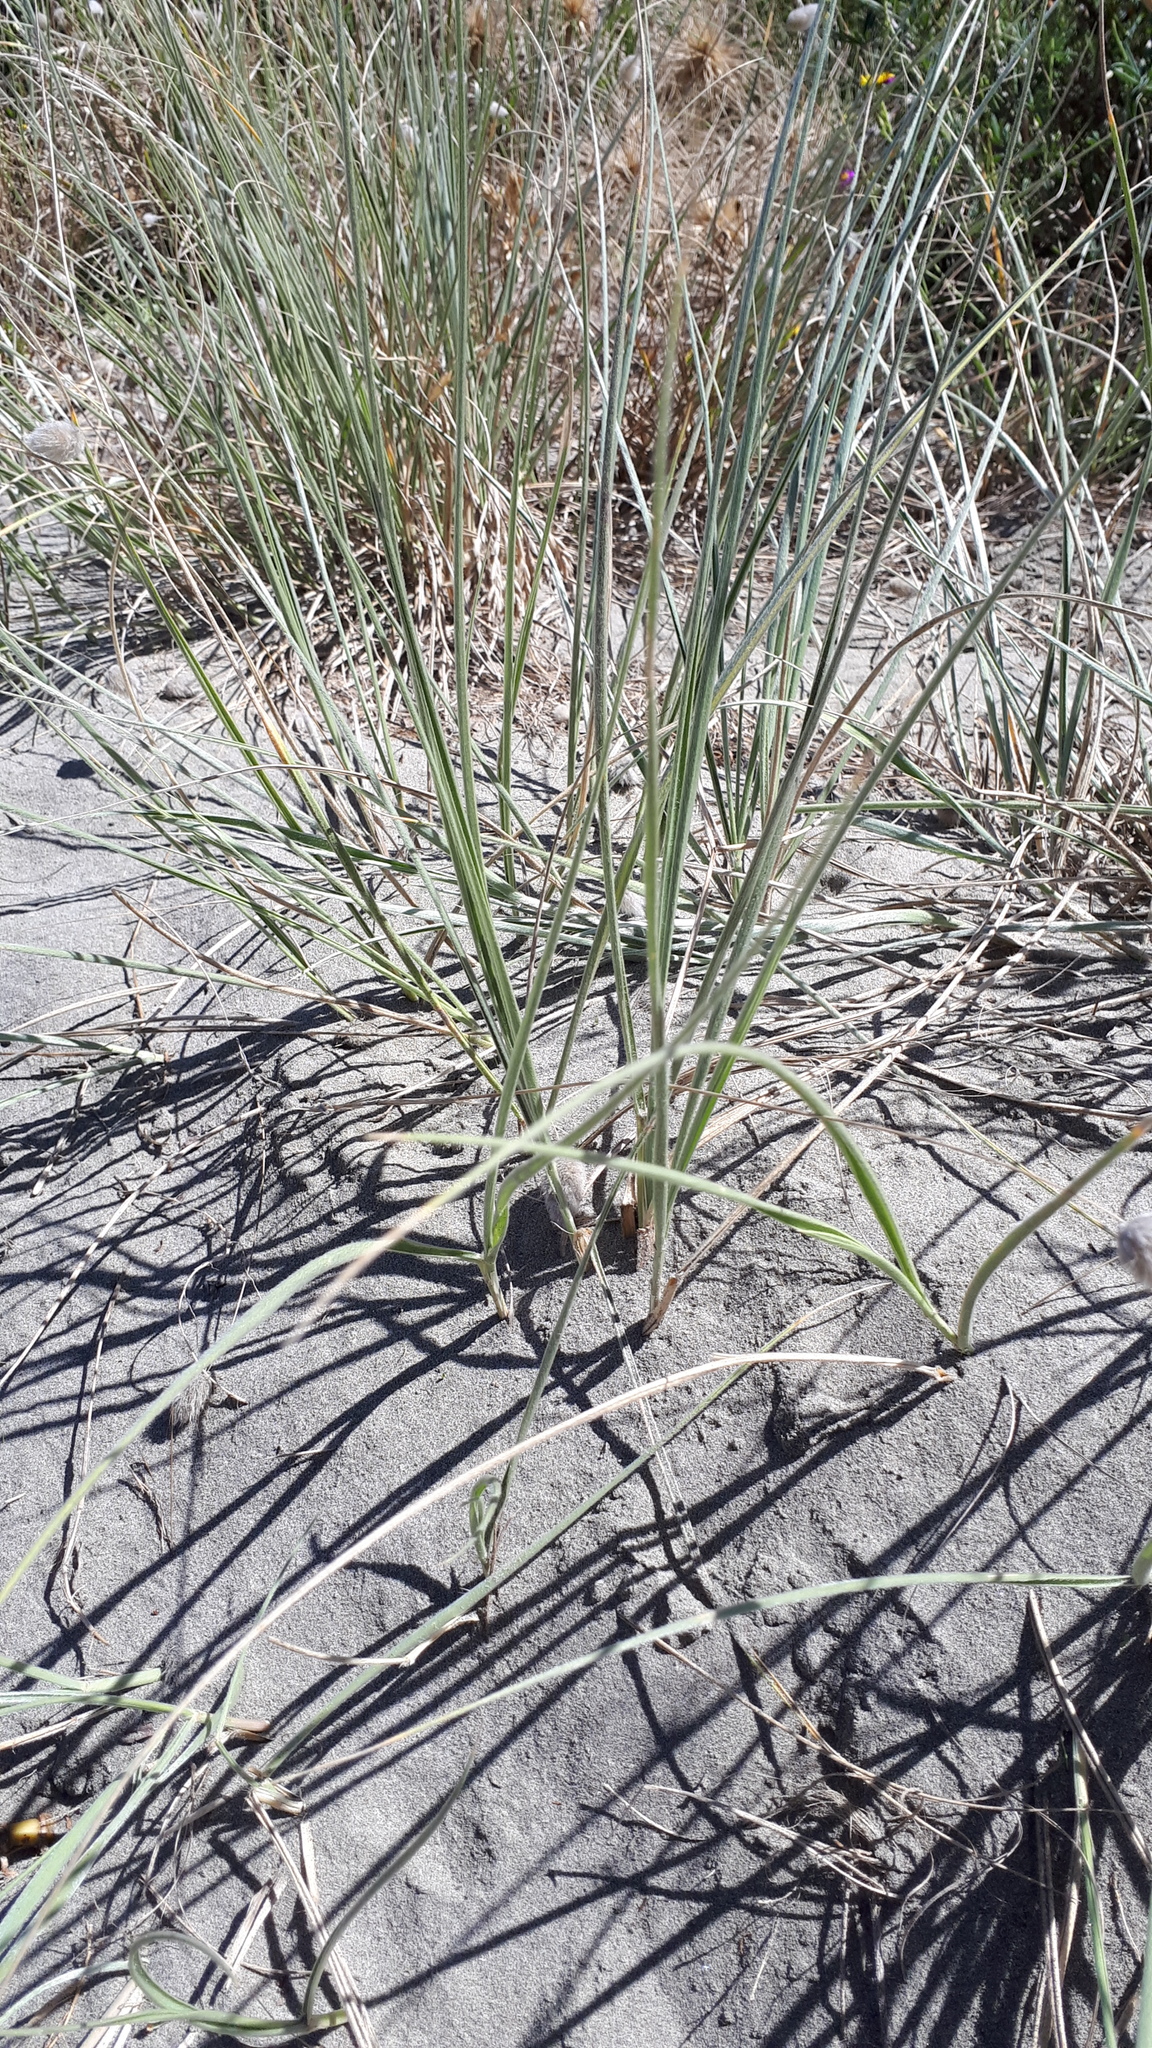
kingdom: Plantae
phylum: Tracheophyta
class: Liliopsida
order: Poales
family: Poaceae
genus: Lagurus
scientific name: Lagurus ovatus
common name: Hare's-tail
